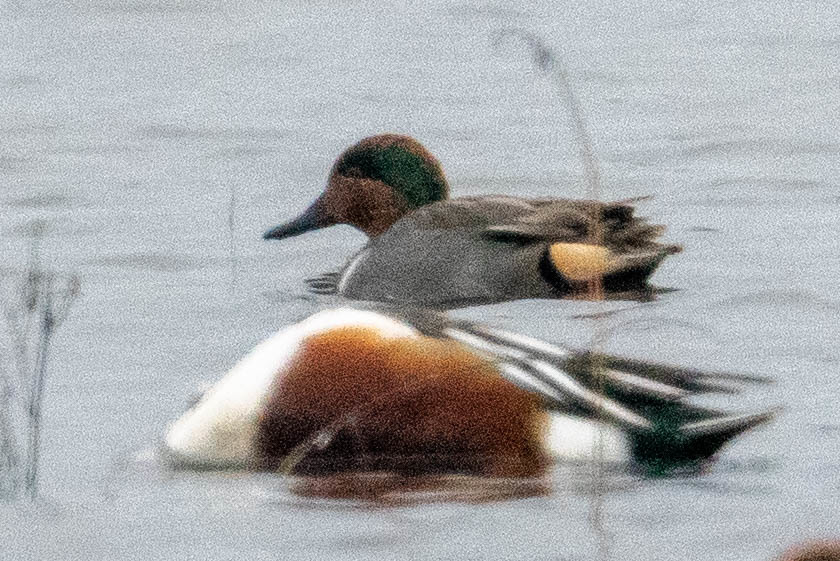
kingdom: Animalia
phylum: Chordata
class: Aves
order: Anseriformes
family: Anatidae
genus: Anas
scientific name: Anas crecca
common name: Eurasian teal
